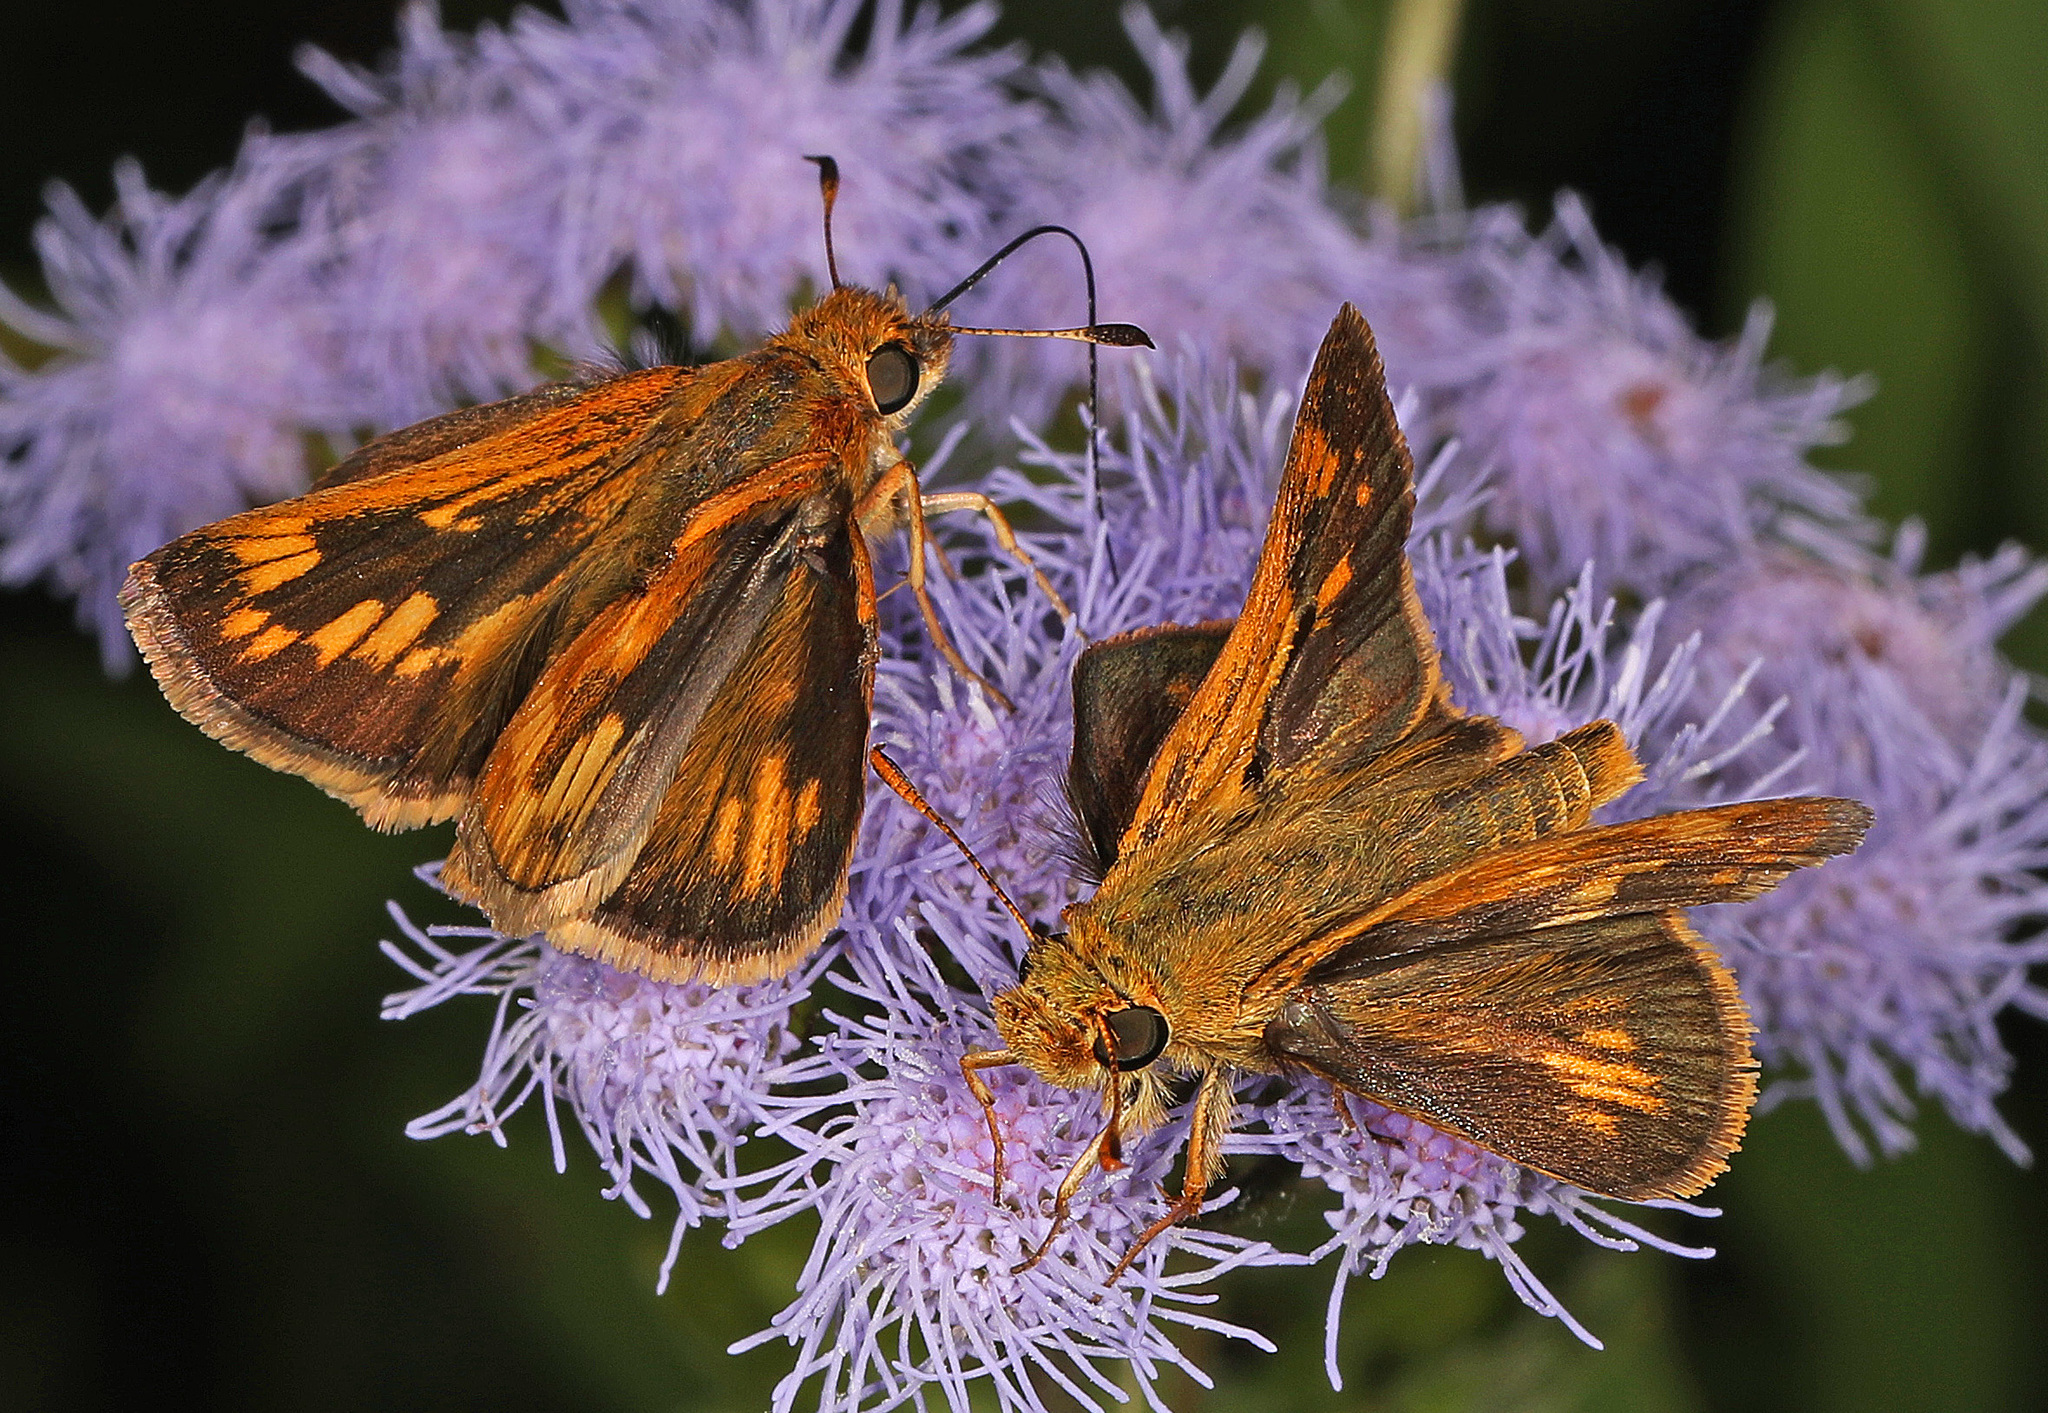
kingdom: Animalia
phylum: Arthropoda
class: Insecta
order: Lepidoptera
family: Hesperiidae
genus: Polites
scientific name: Polites coras
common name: Peck's skipper
